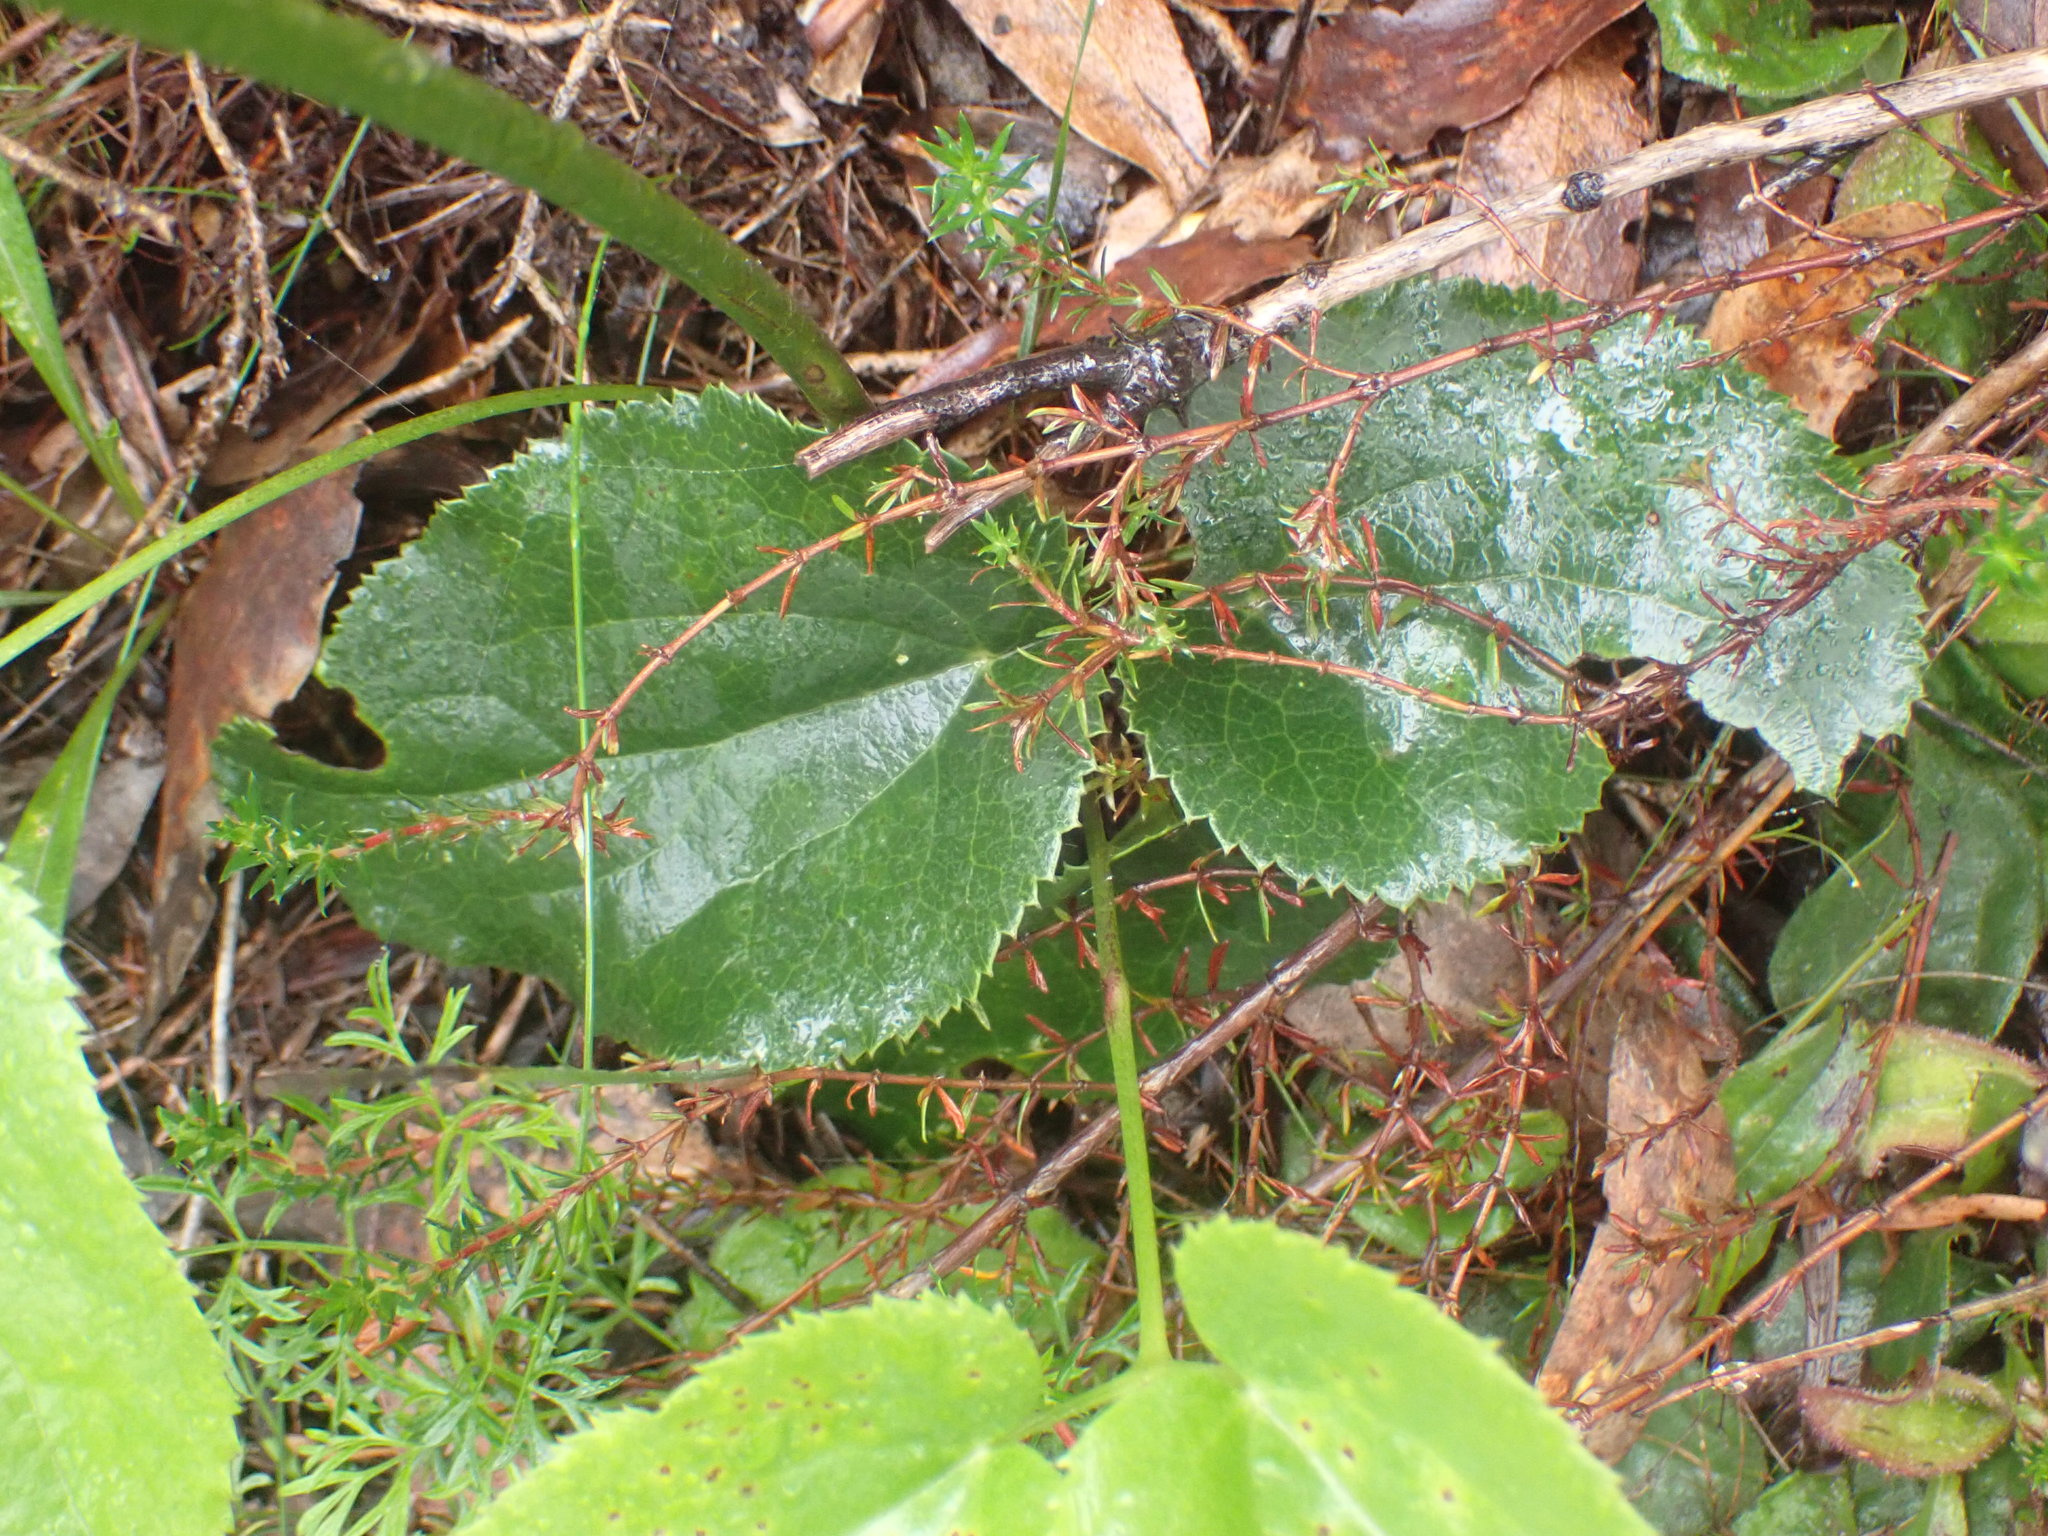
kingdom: Plantae
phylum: Tracheophyta
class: Magnoliopsida
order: Ranunculales
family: Ranunculaceae
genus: Knowltonia
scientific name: Knowltonia vesicatoria
